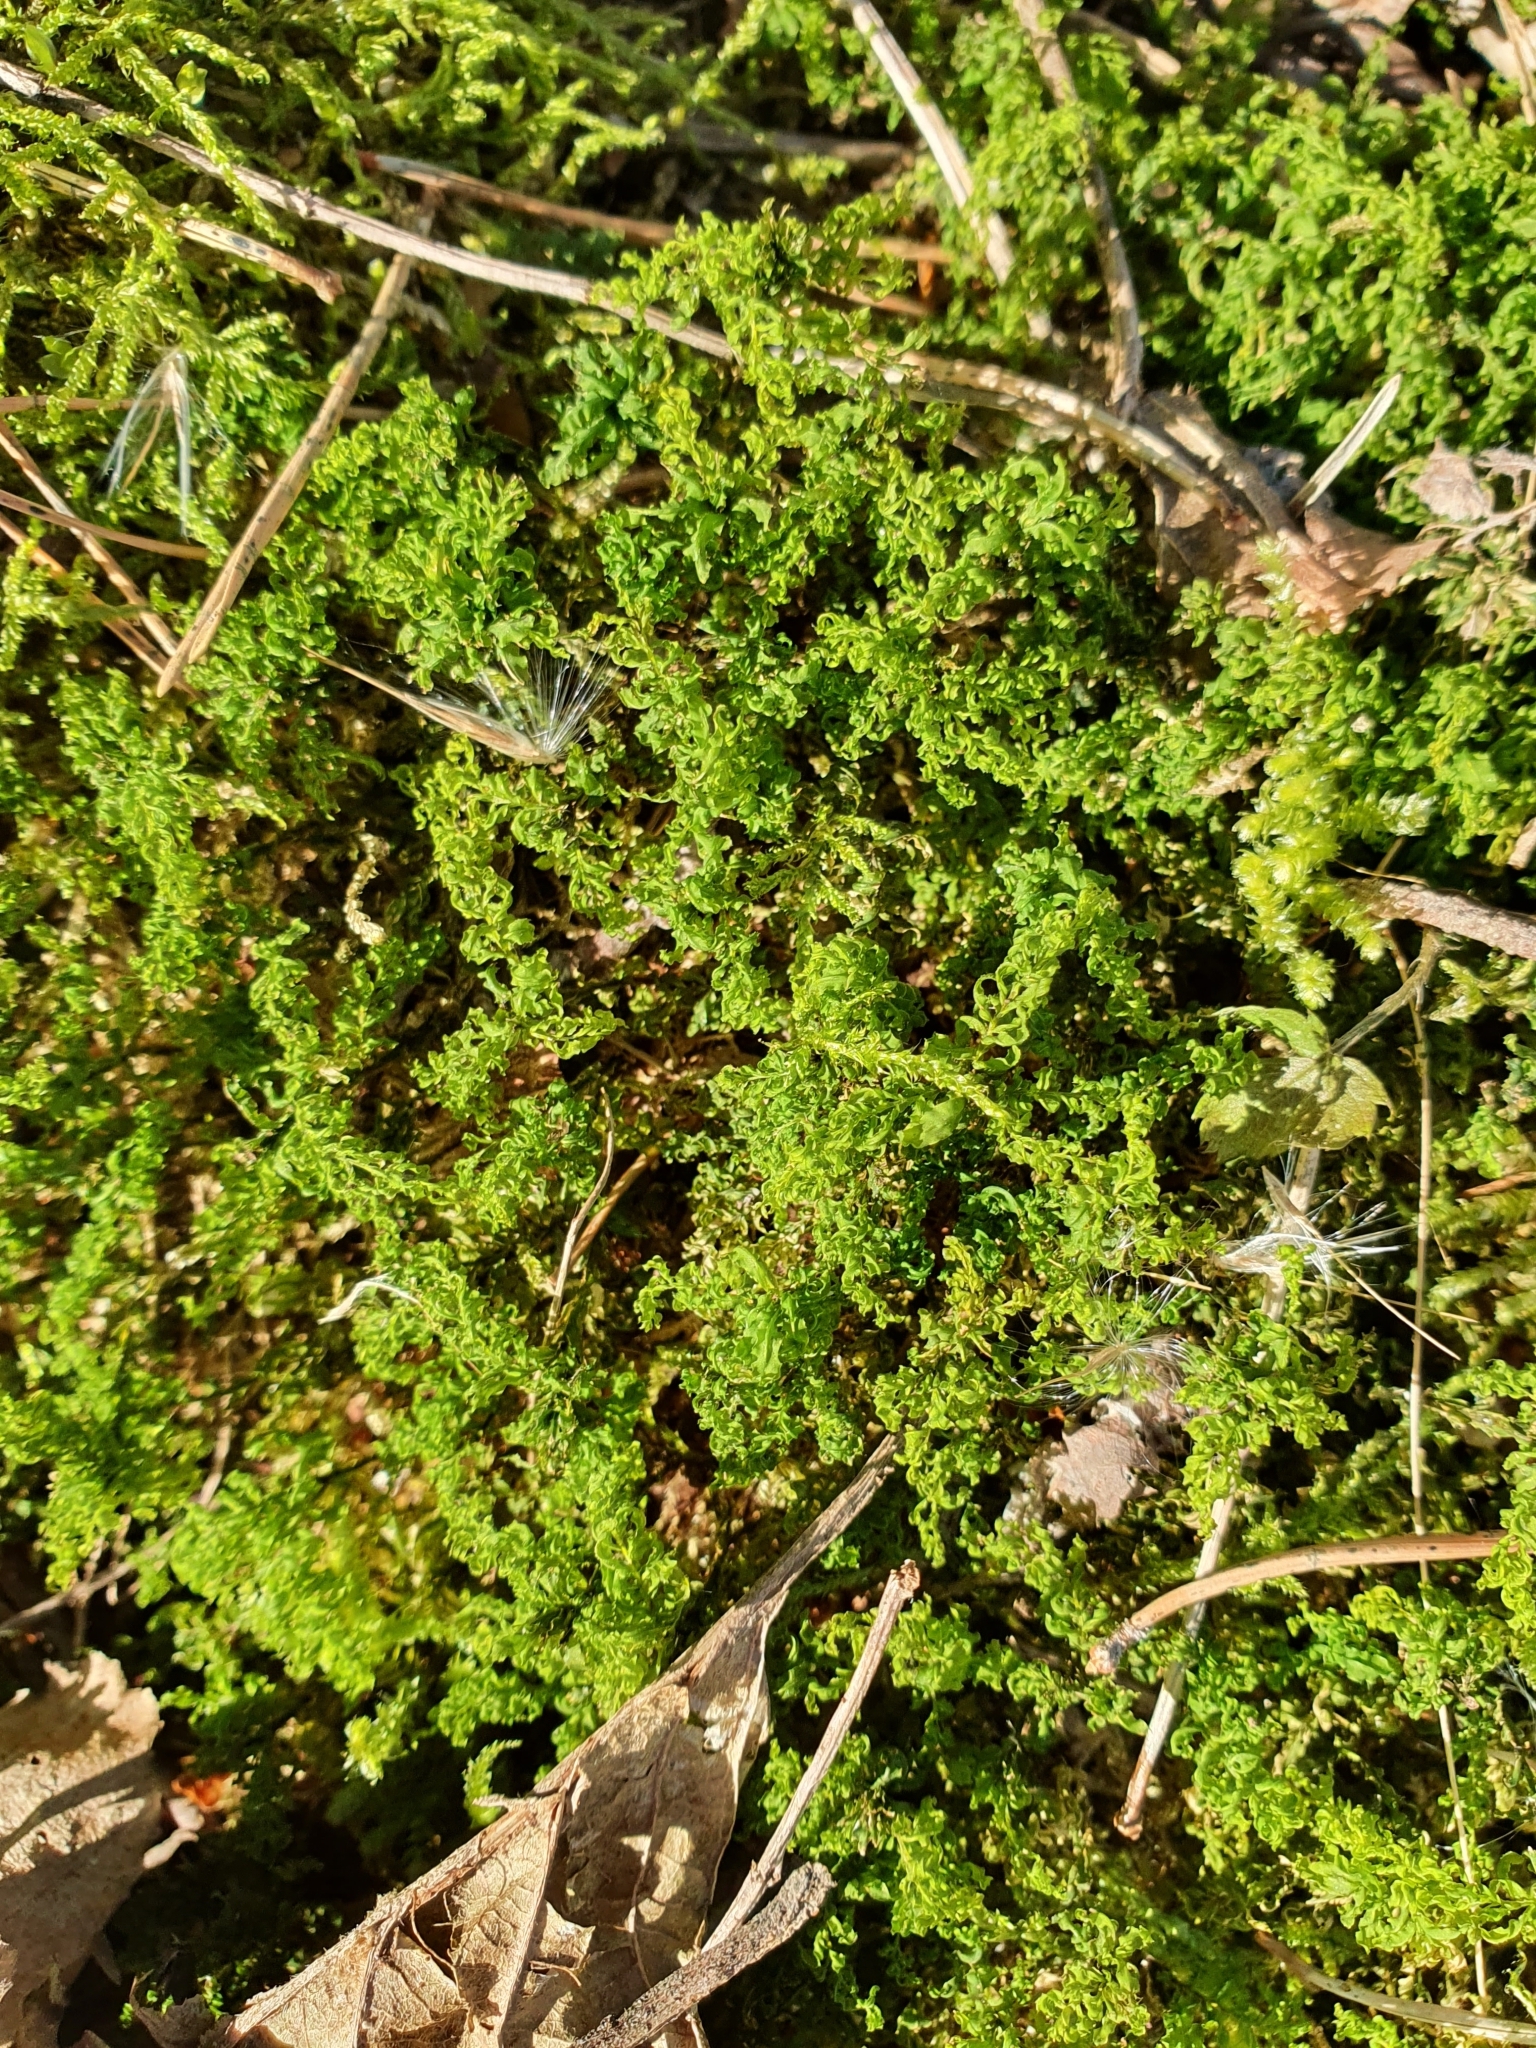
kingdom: Plantae
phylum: Bryophyta
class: Bryopsida
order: Bryales
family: Mniaceae
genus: Plagiomnium
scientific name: Plagiomnium undulatum
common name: Hart's-tongue thyme-moss
